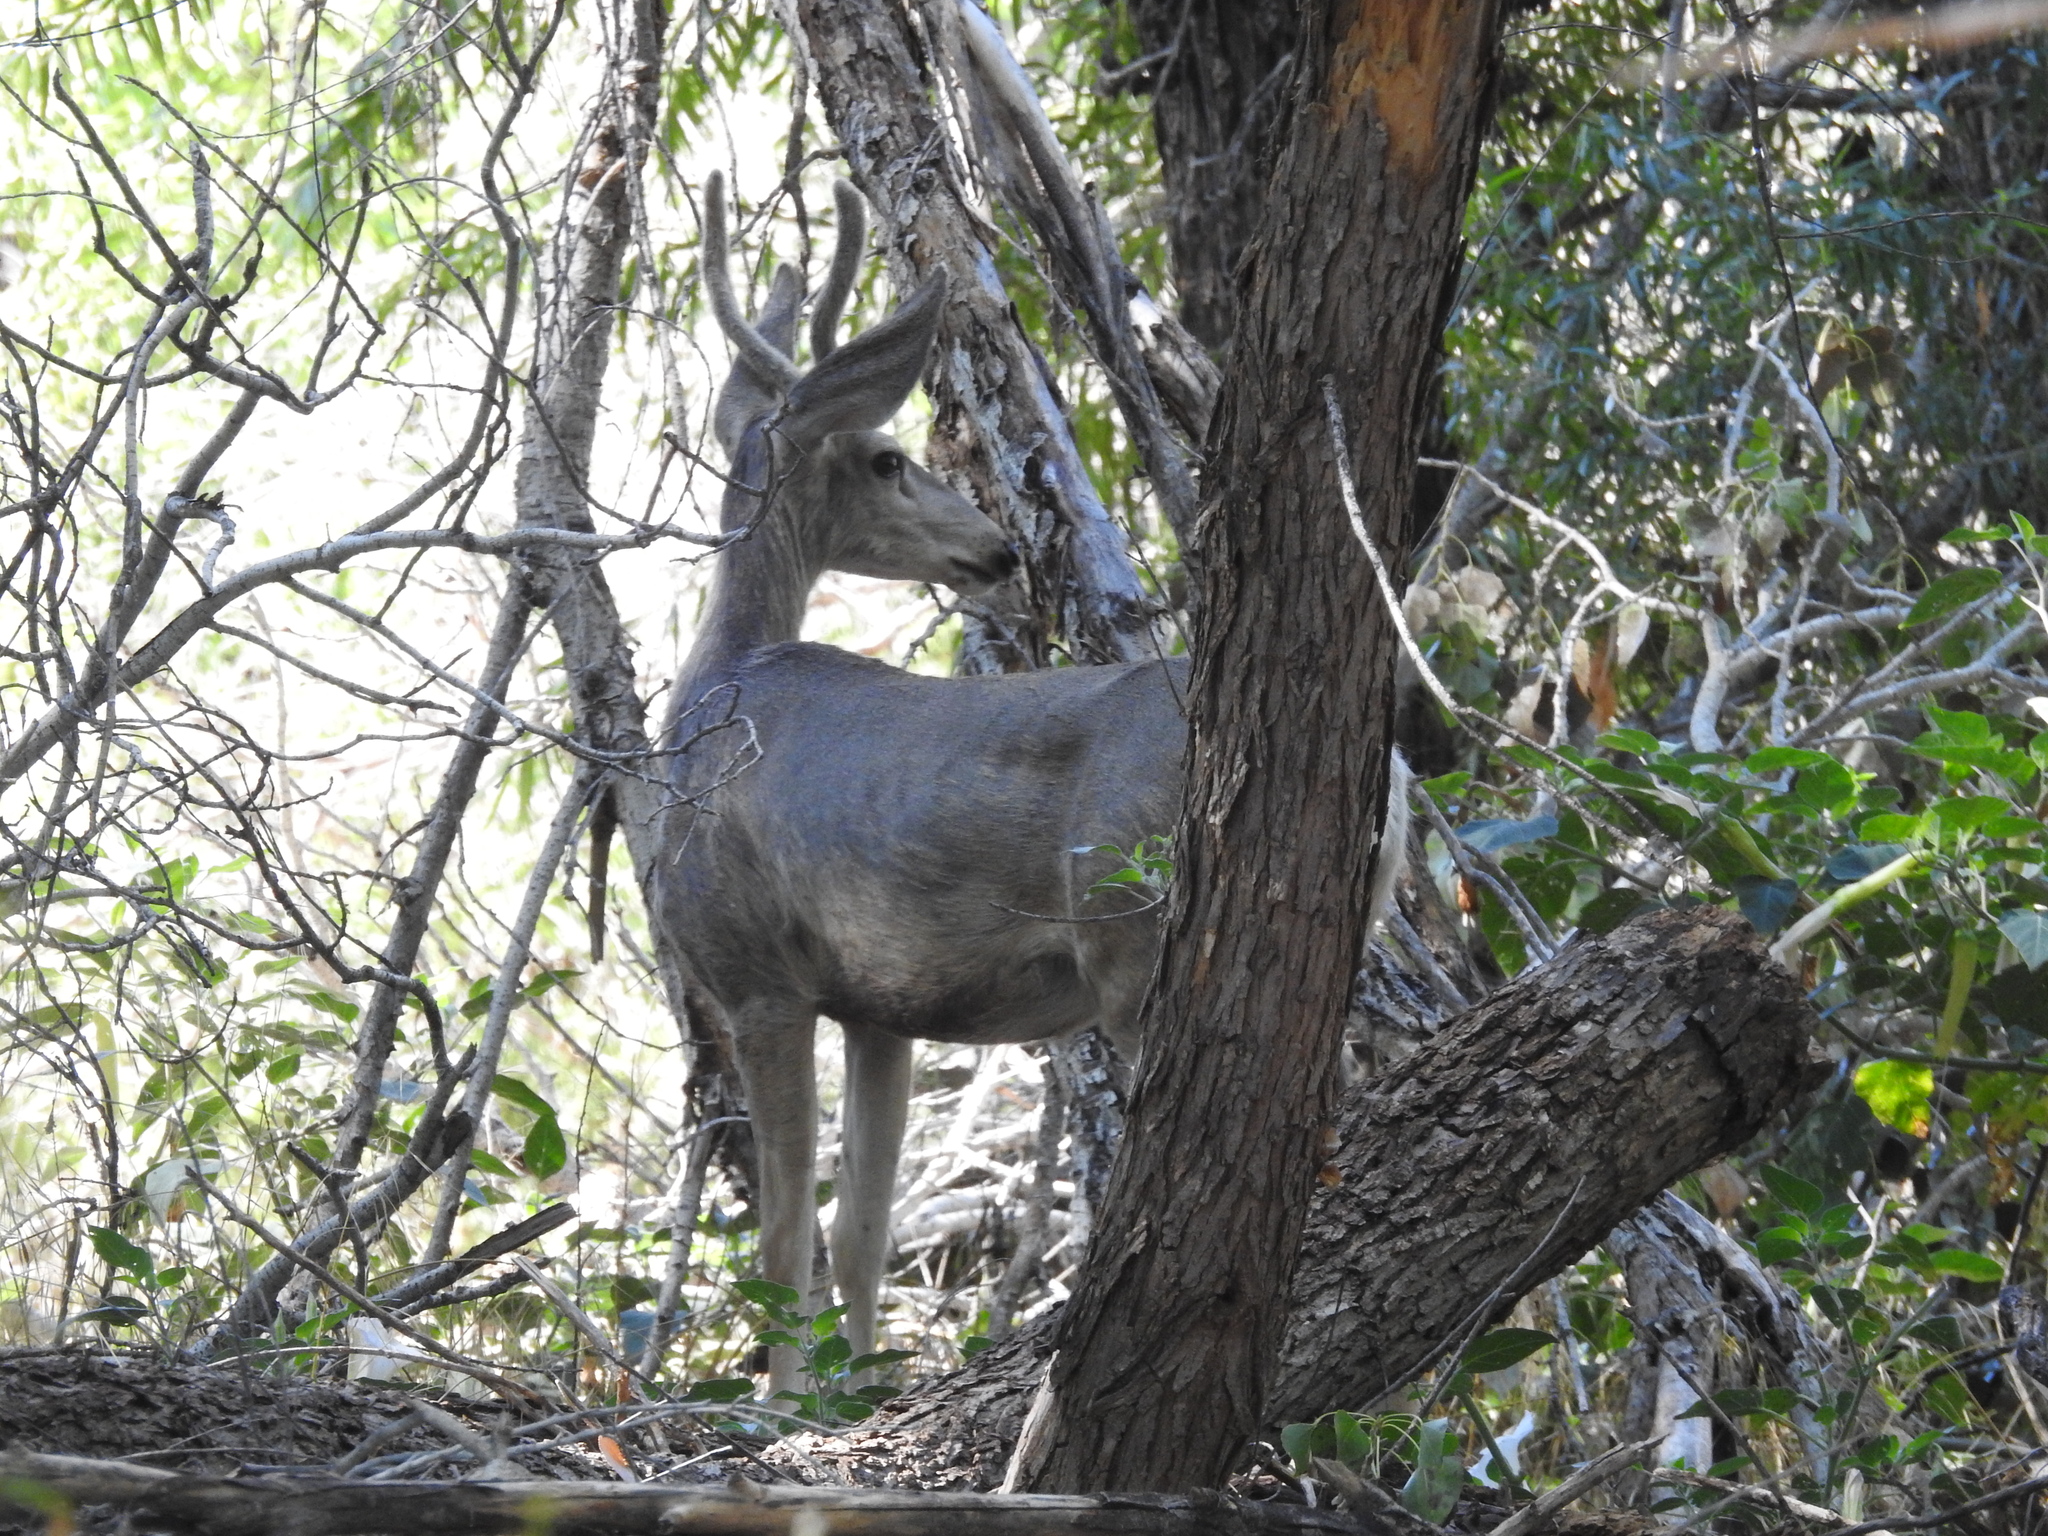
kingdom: Animalia
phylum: Chordata
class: Mammalia
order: Artiodactyla
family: Cervidae
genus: Odocoileus
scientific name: Odocoileus hemionus
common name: Mule deer
